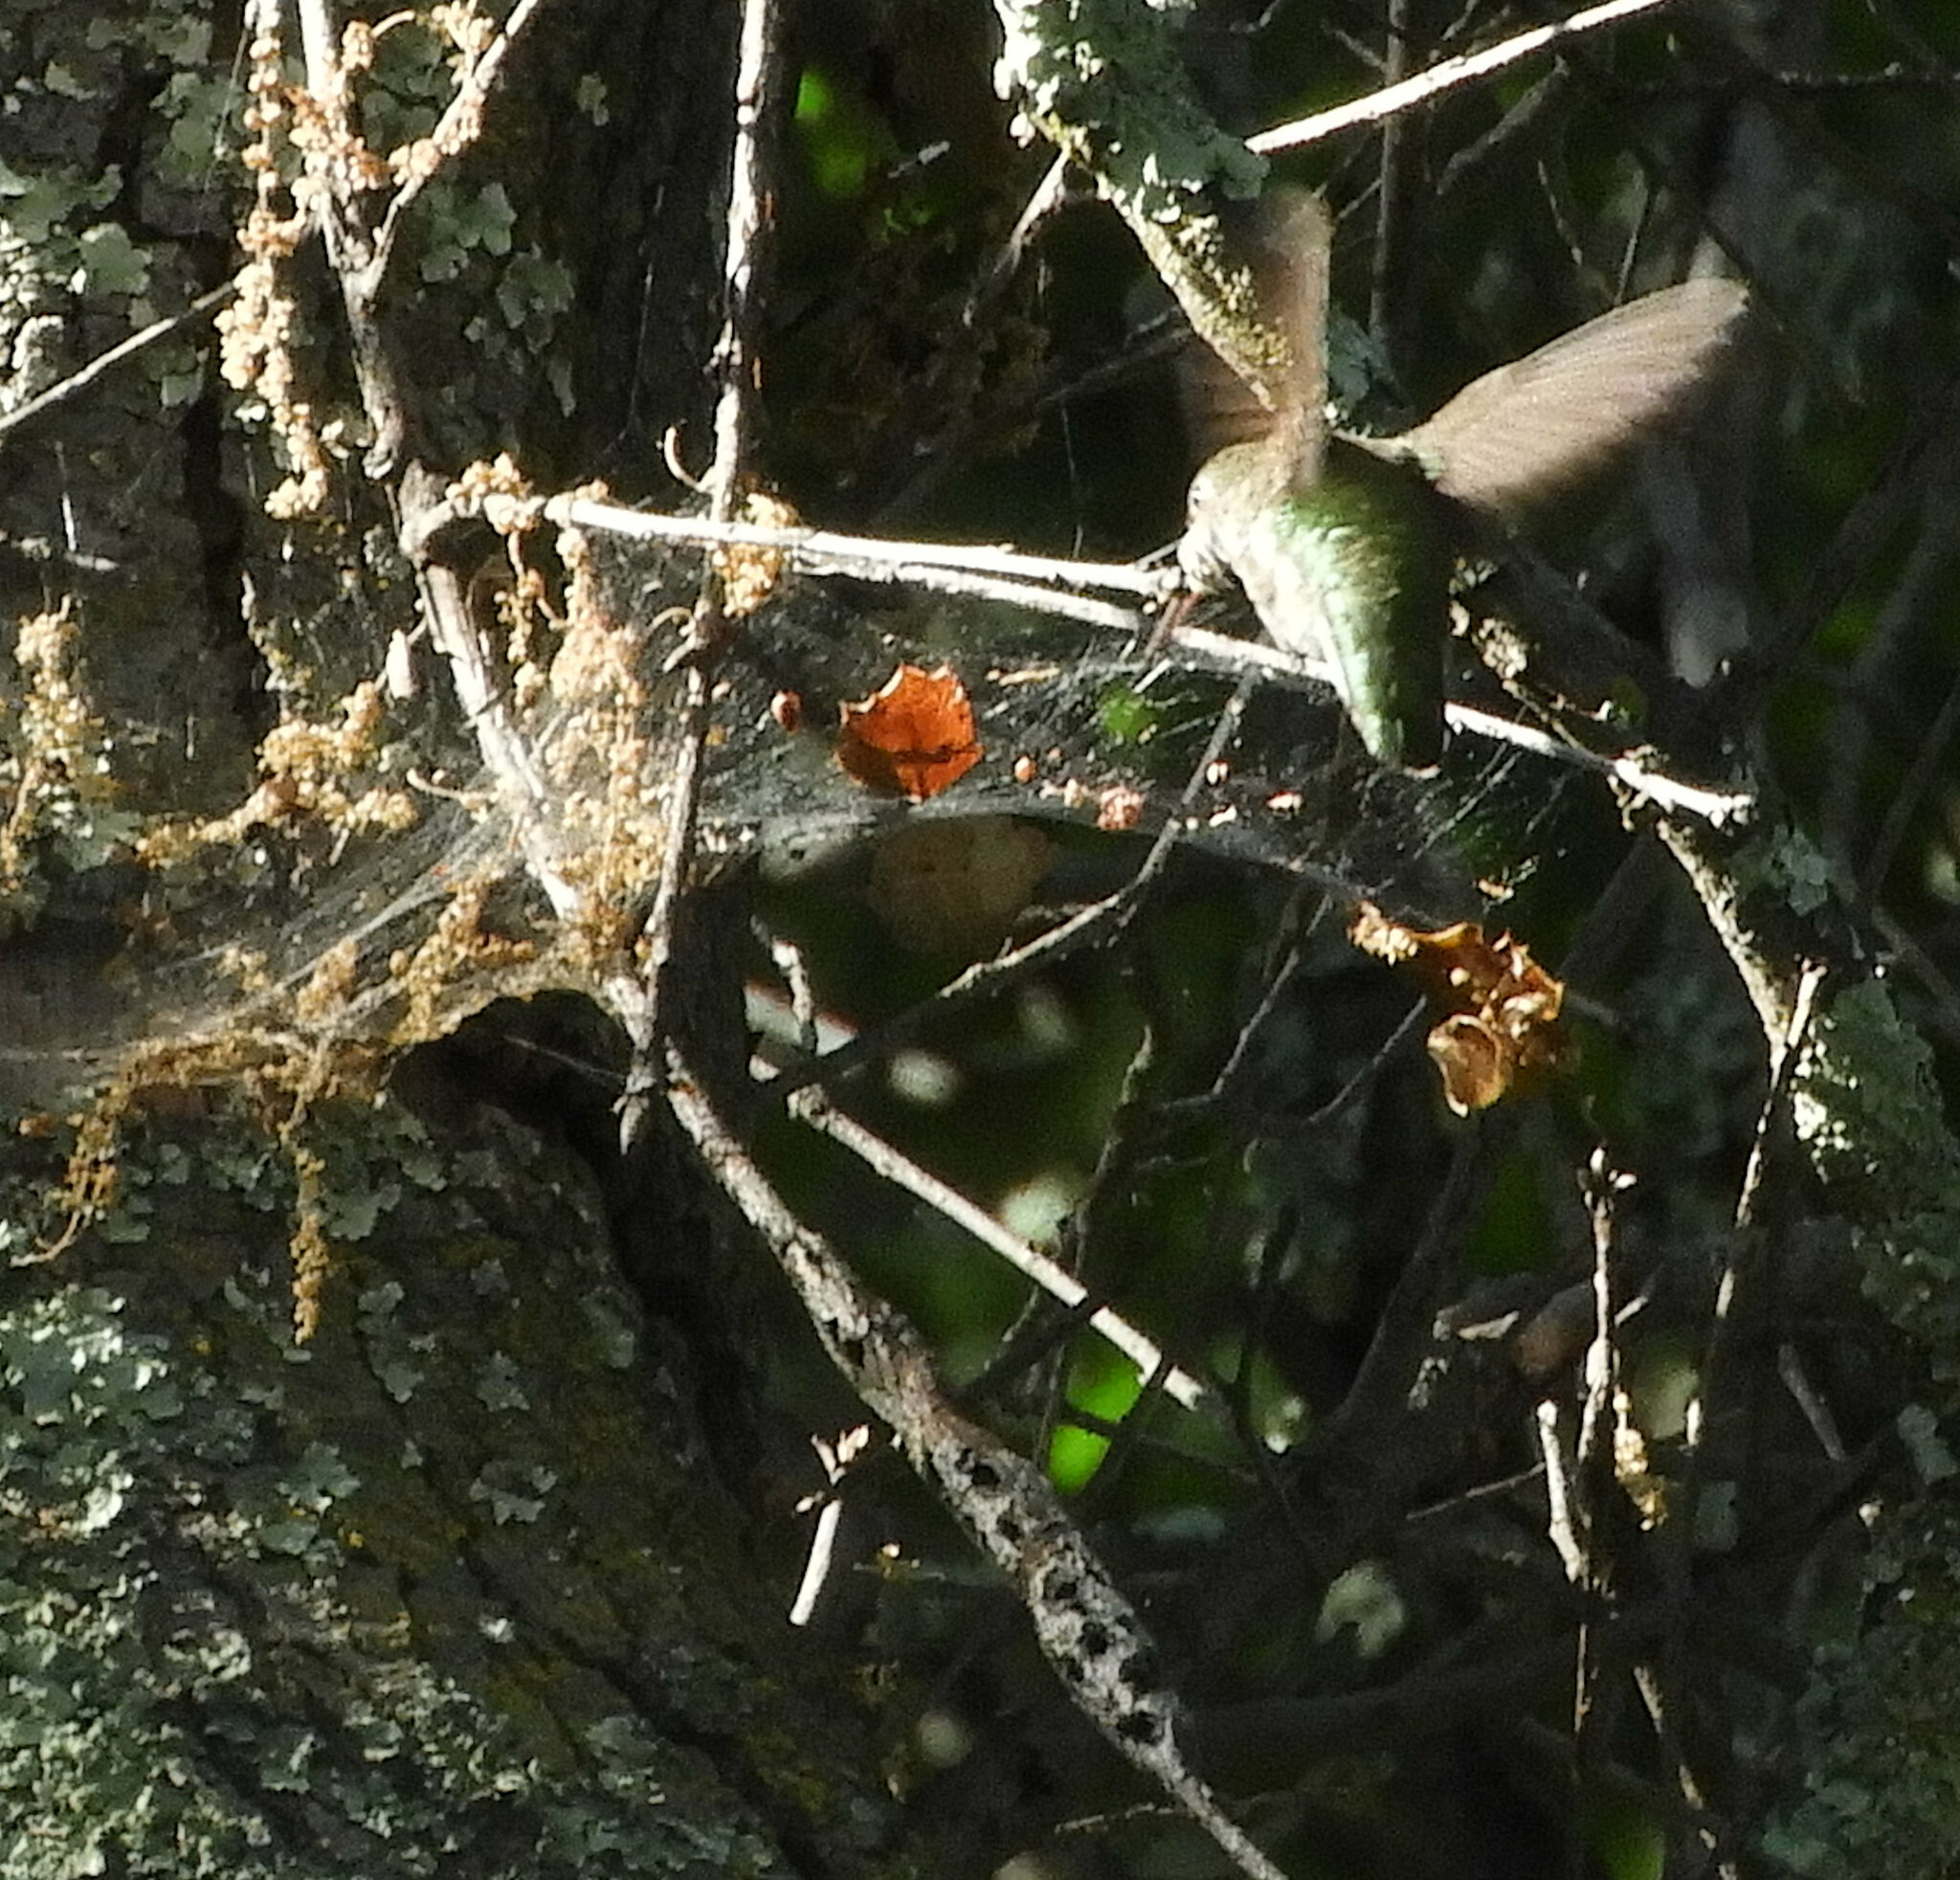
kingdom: Animalia
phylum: Chordata
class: Aves
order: Apodiformes
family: Trochilidae
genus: Calypte
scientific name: Calypte anna
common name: Anna's hummingbird
